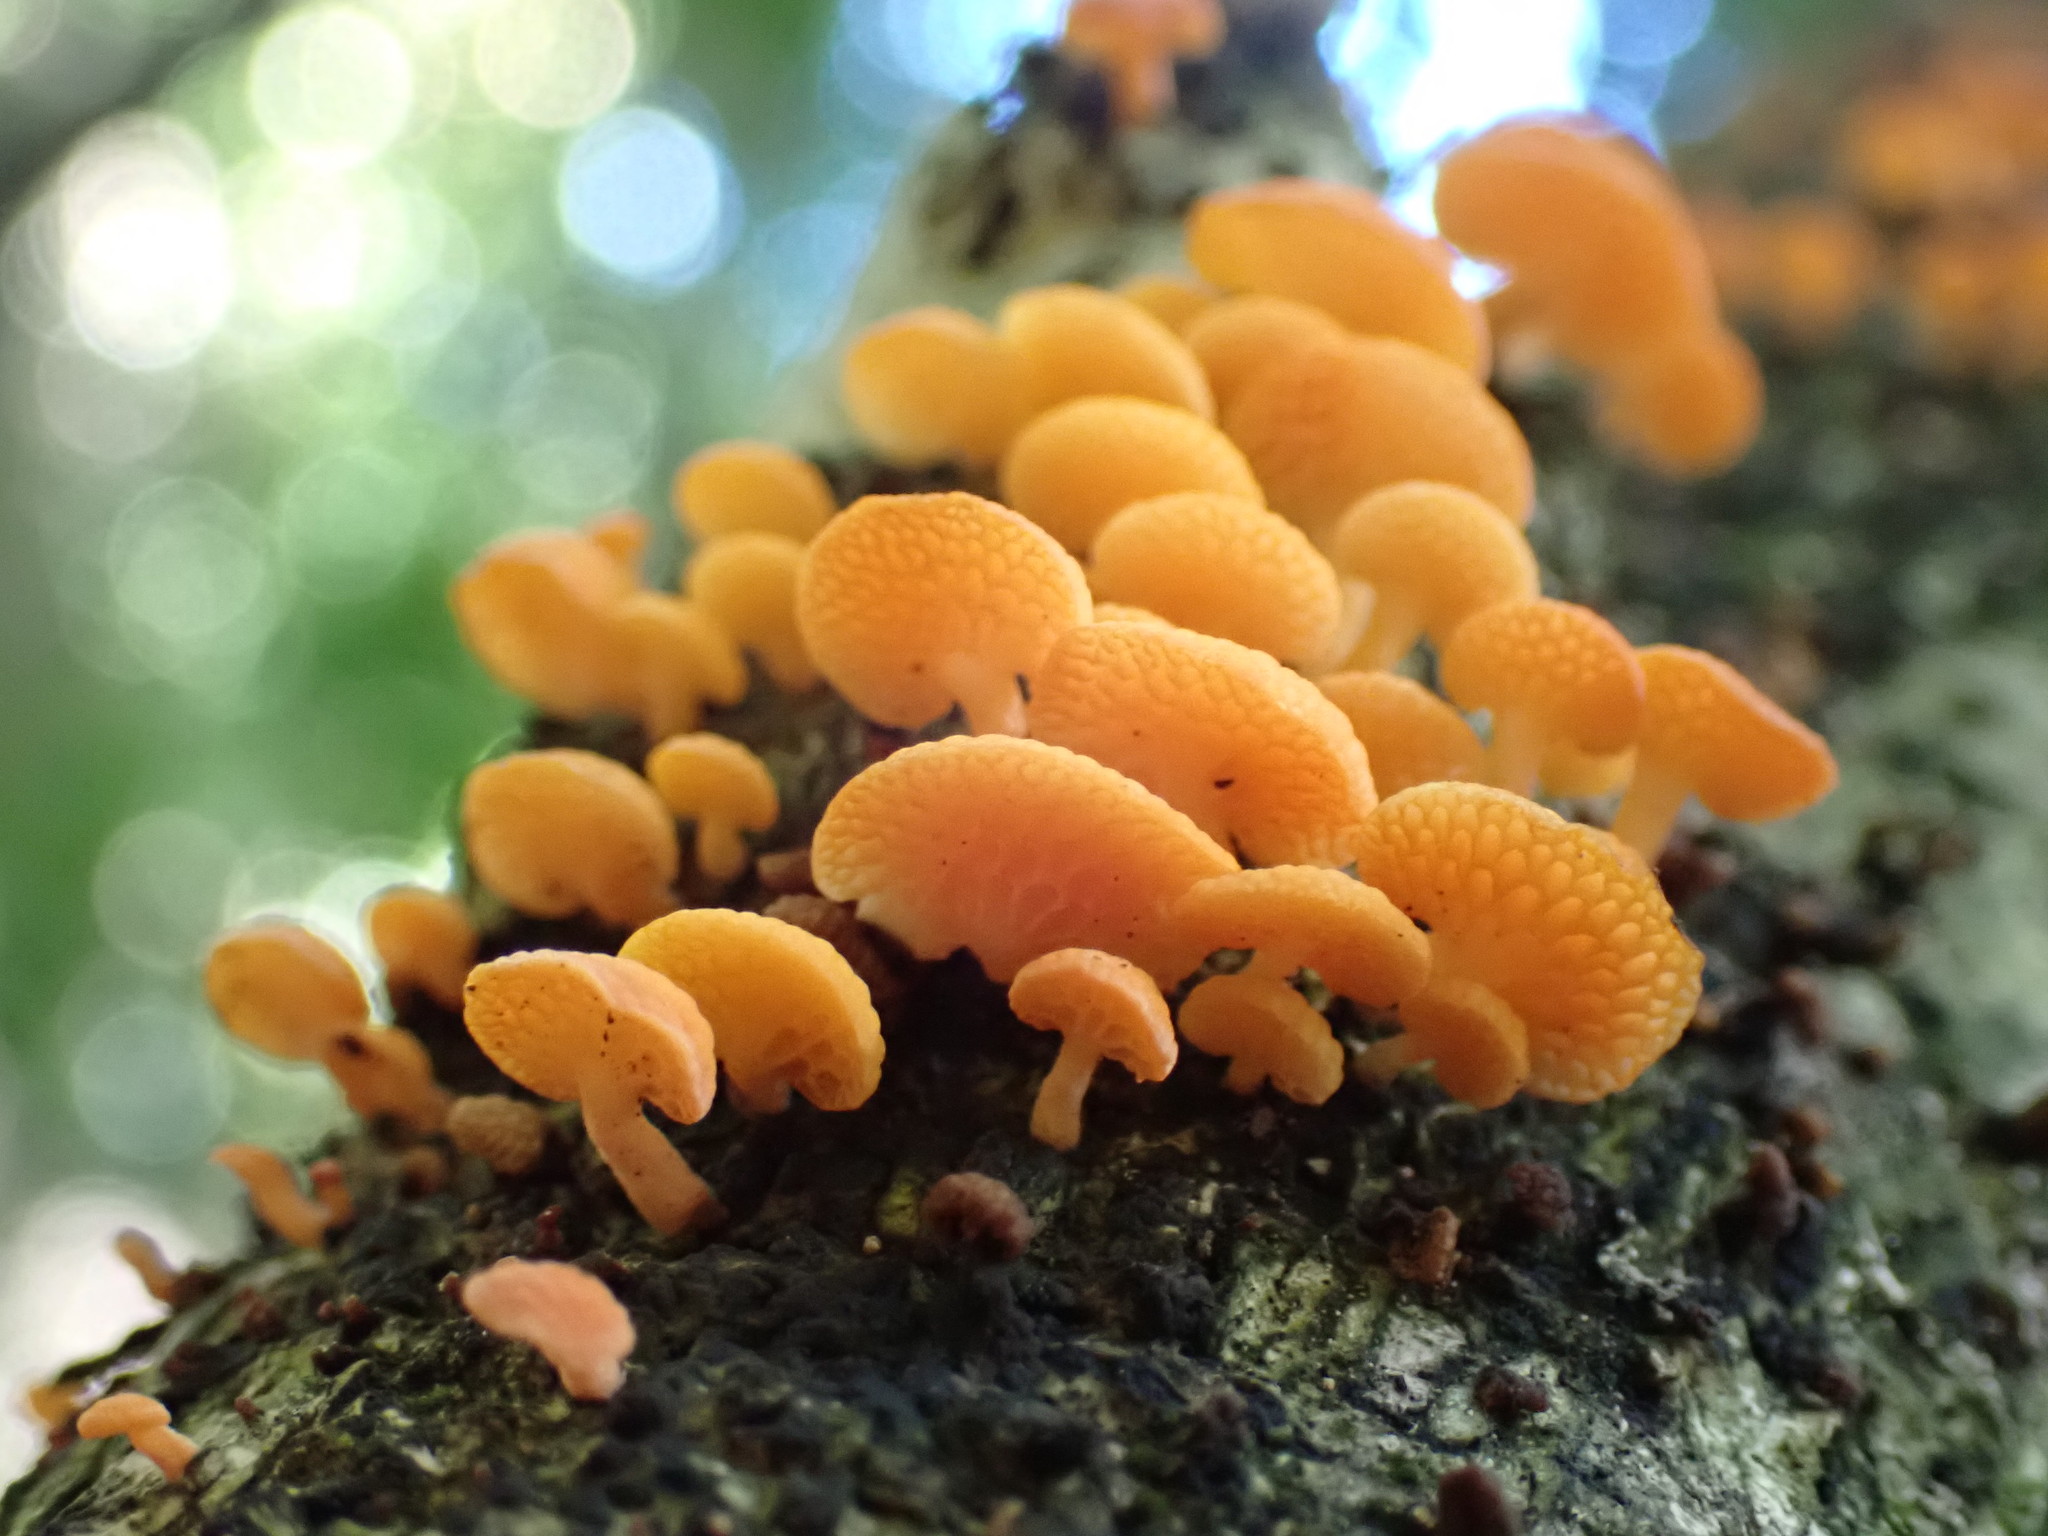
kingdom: Fungi
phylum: Basidiomycota
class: Agaricomycetes
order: Agaricales
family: Mycenaceae
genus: Favolaschia
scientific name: Favolaschia claudopus
